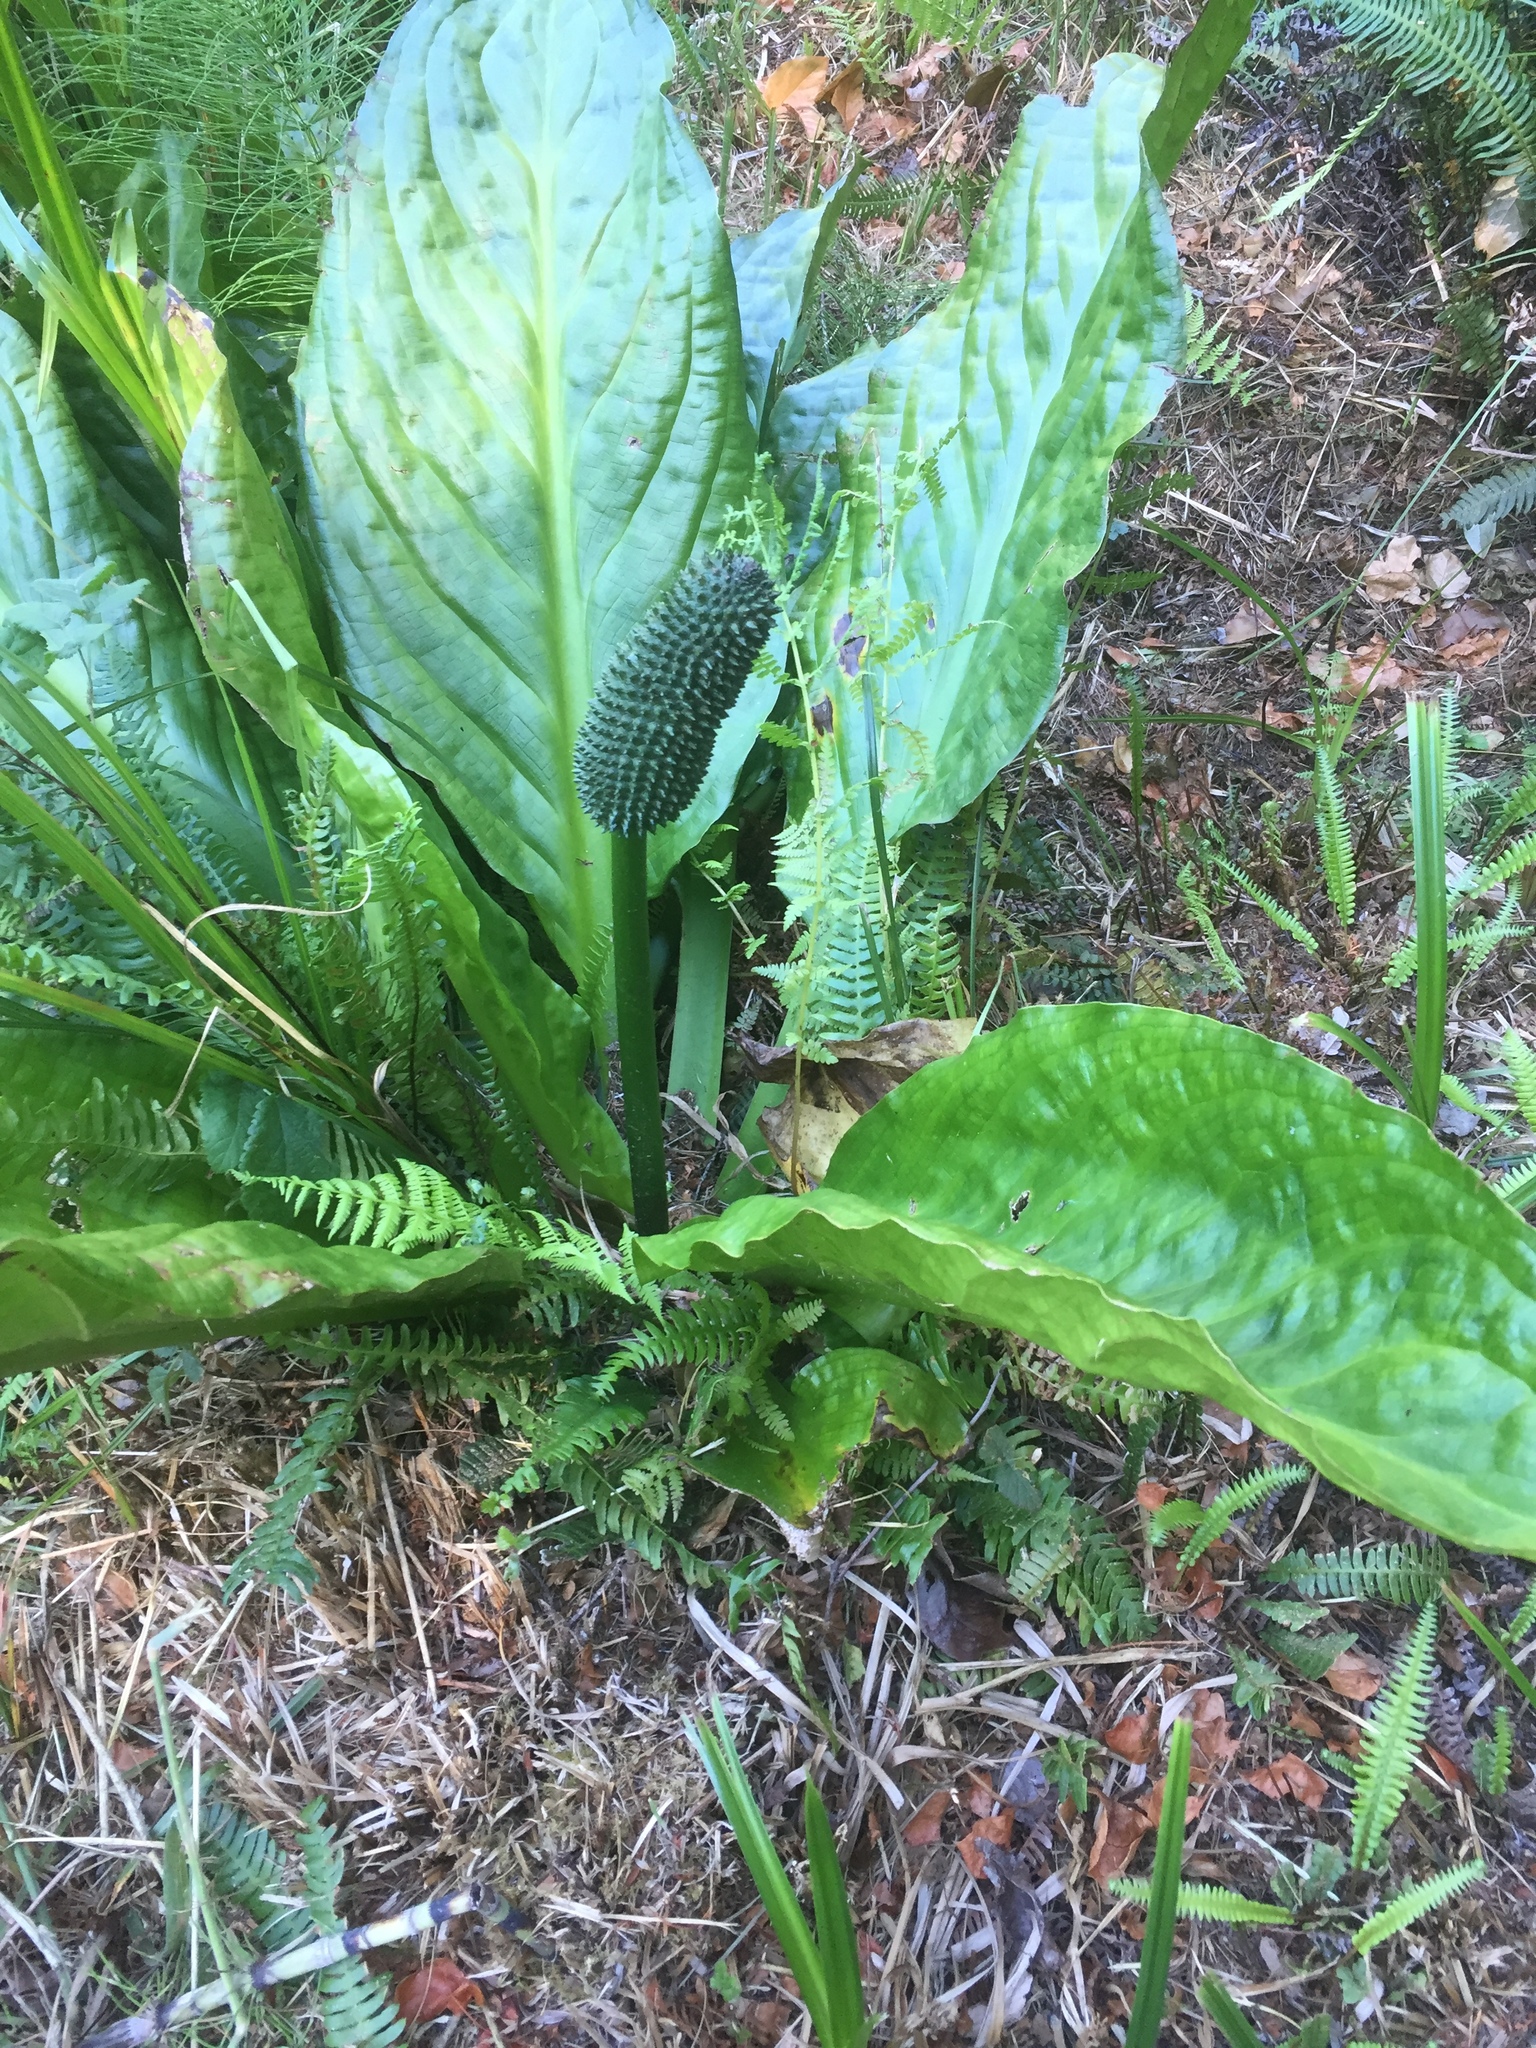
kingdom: Plantae
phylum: Tracheophyta
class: Liliopsida
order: Alismatales
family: Araceae
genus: Lysichiton
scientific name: Lysichiton americanus
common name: American skunk cabbage
